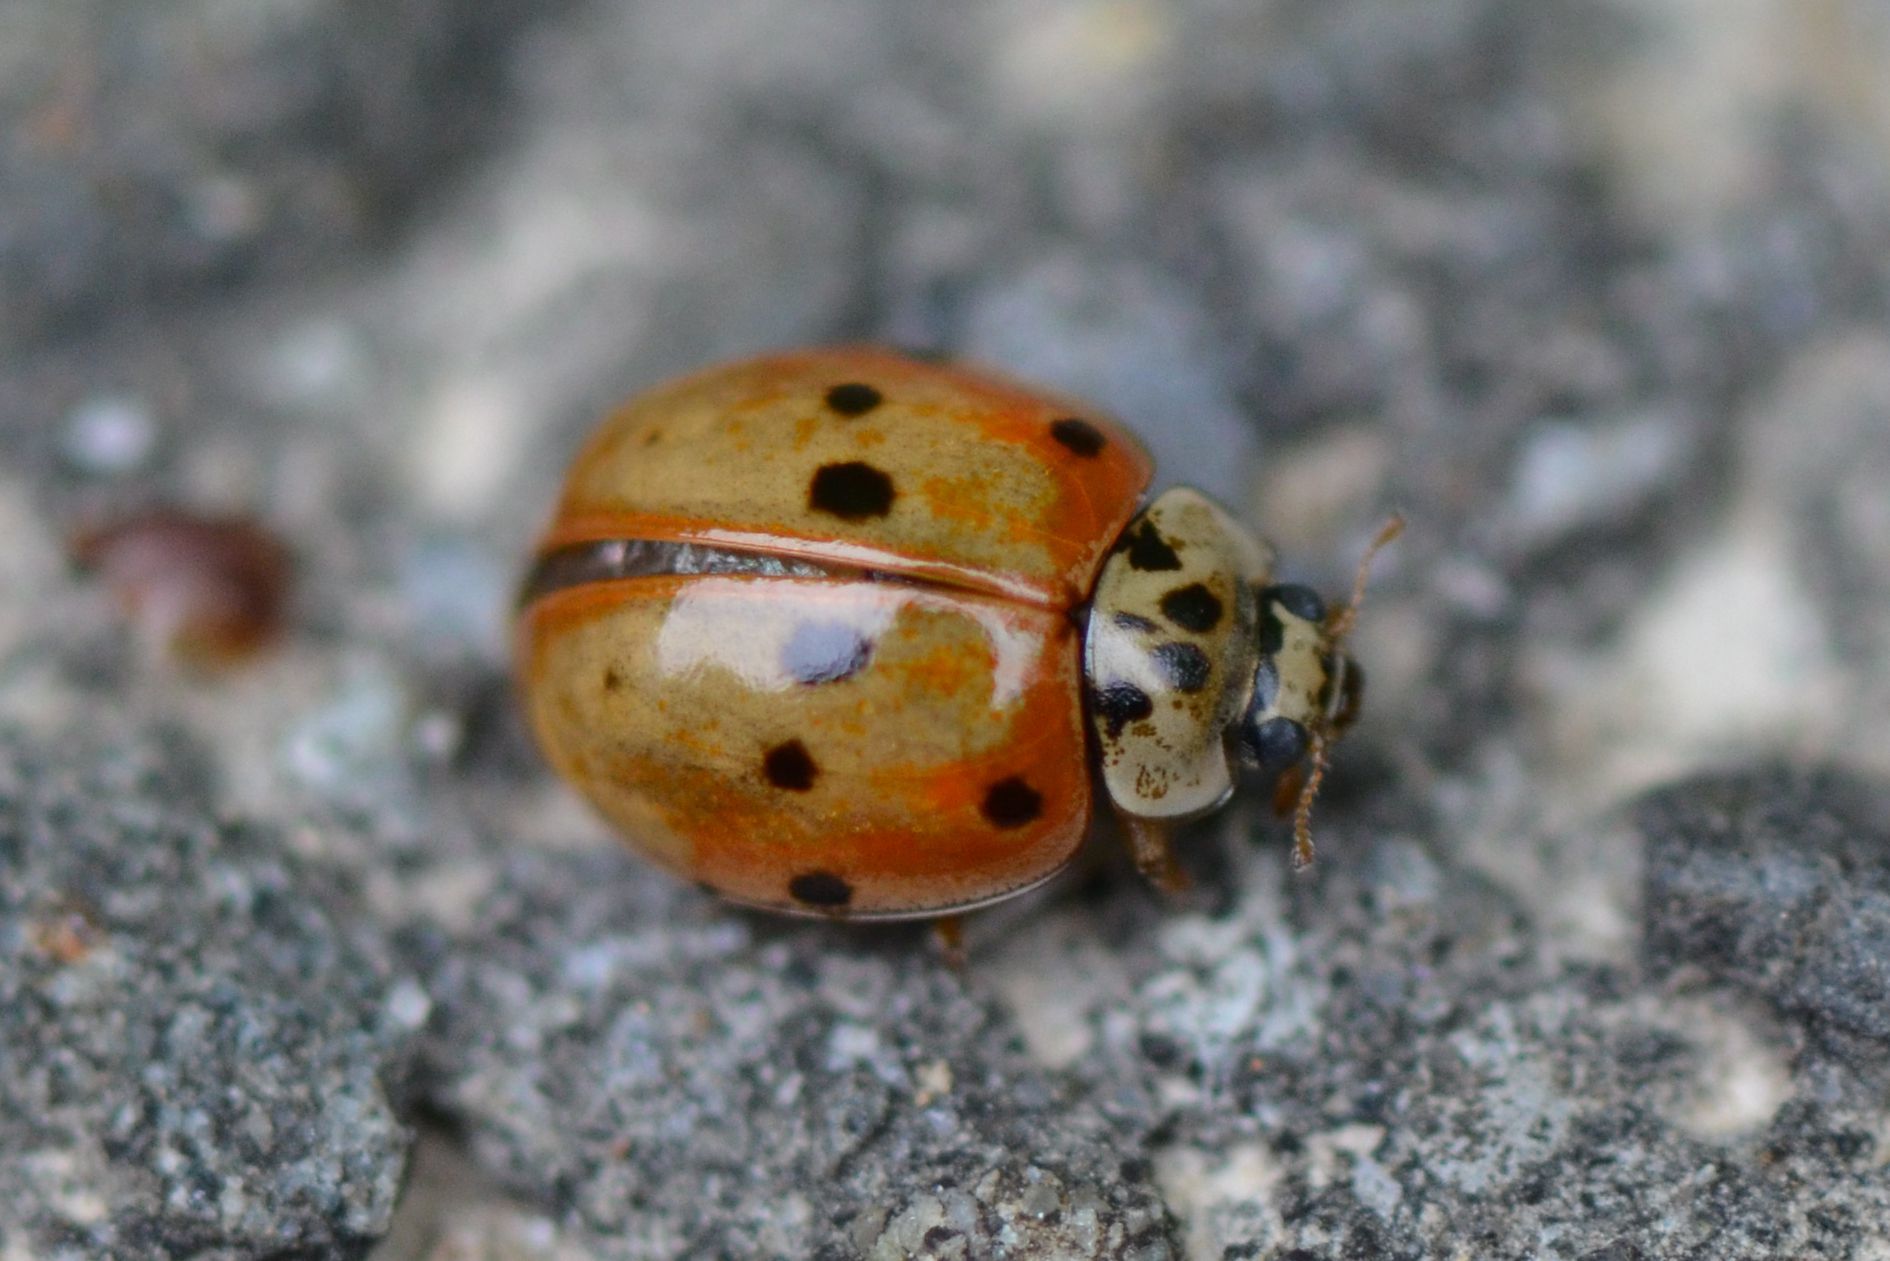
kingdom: Animalia
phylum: Arthropoda
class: Insecta
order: Coleoptera
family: Coccinellidae
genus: Adalia
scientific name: Adalia decempunctata
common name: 10-spot ladybird
